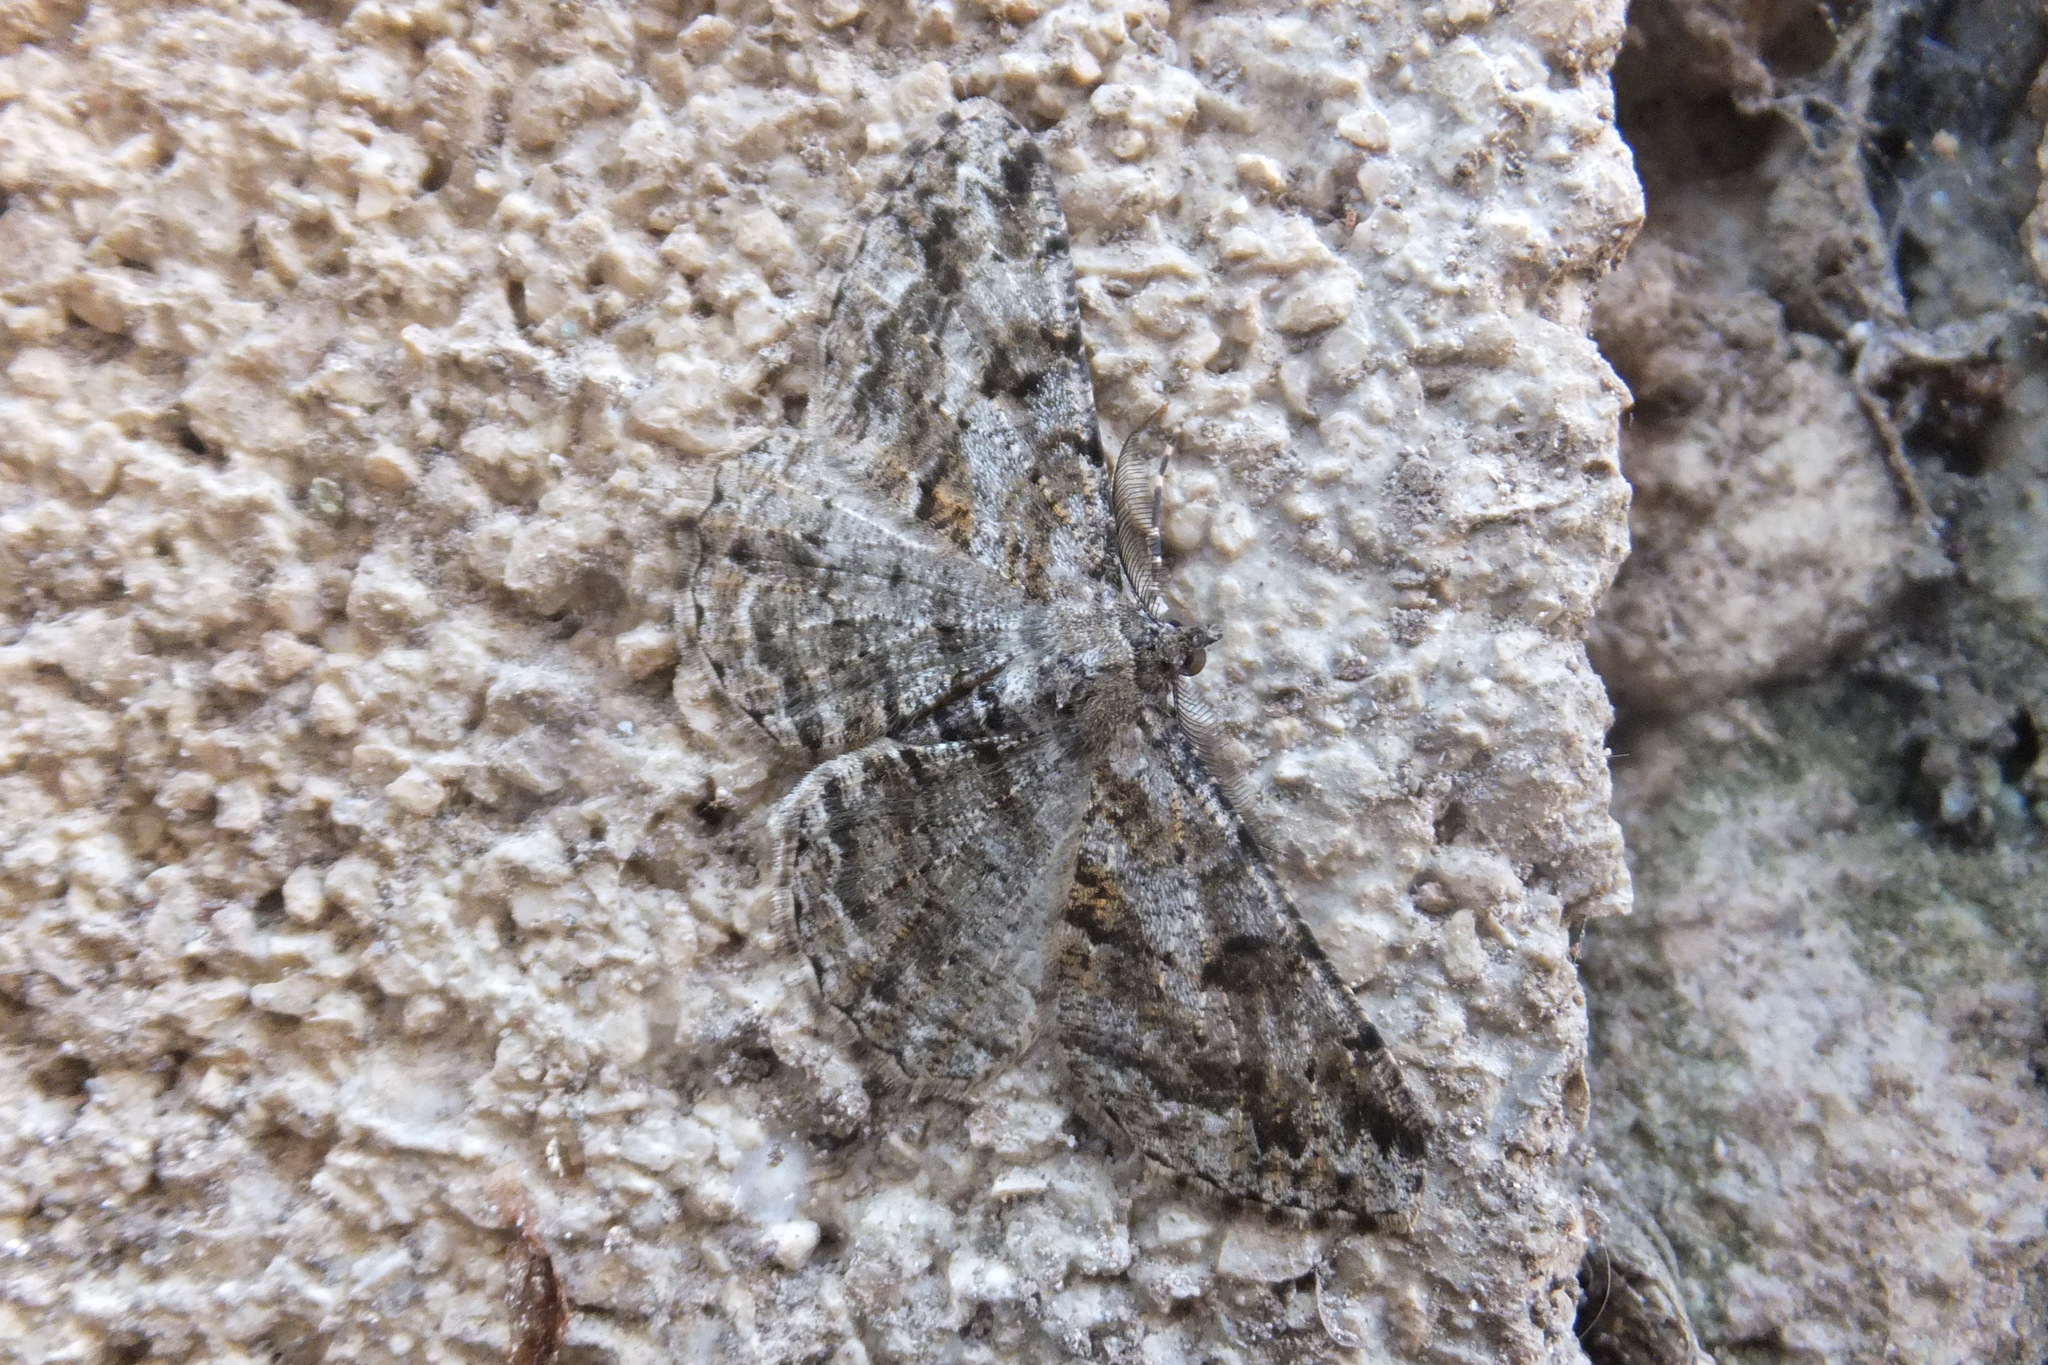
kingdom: Animalia
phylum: Arthropoda
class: Insecta
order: Lepidoptera
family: Geometridae
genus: Peribatodes
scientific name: Peribatodes rhomboidaria
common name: Willow beauty
